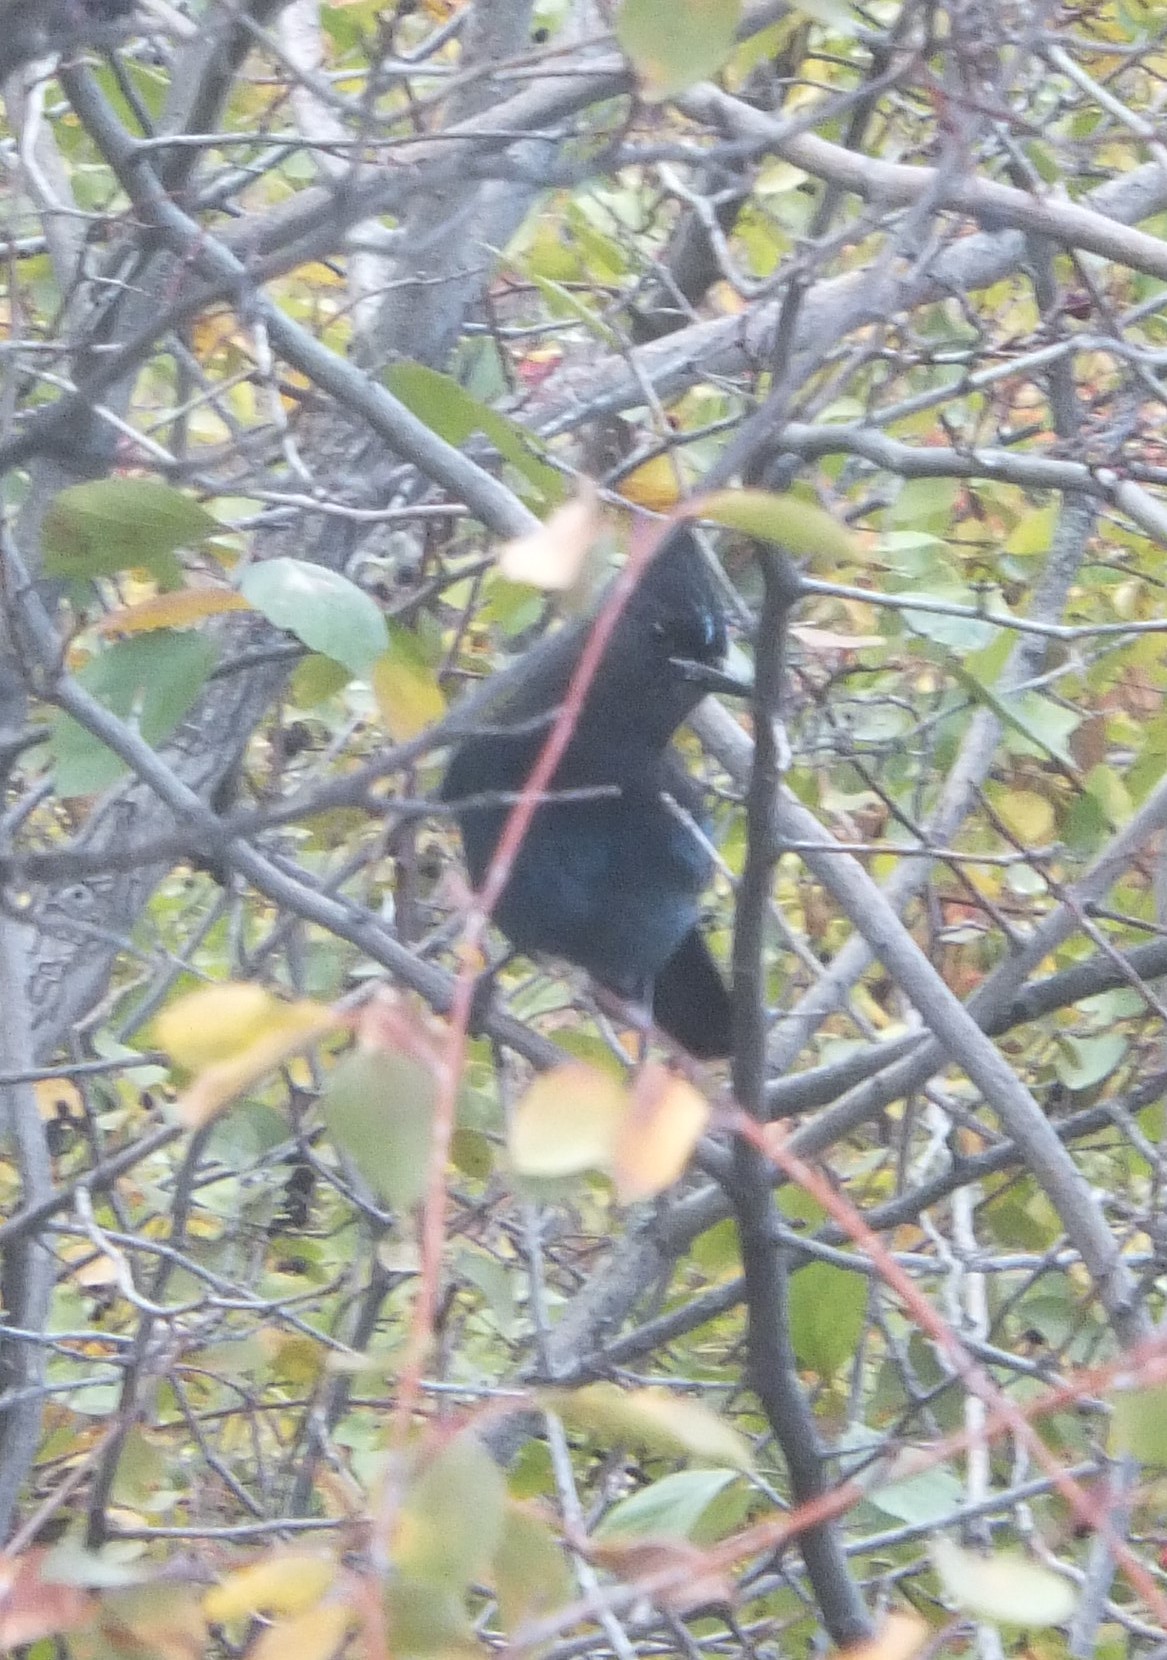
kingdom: Animalia
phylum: Chordata
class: Aves
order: Passeriformes
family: Corvidae
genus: Cyanocitta
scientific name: Cyanocitta stelleri
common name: Steller's jay
